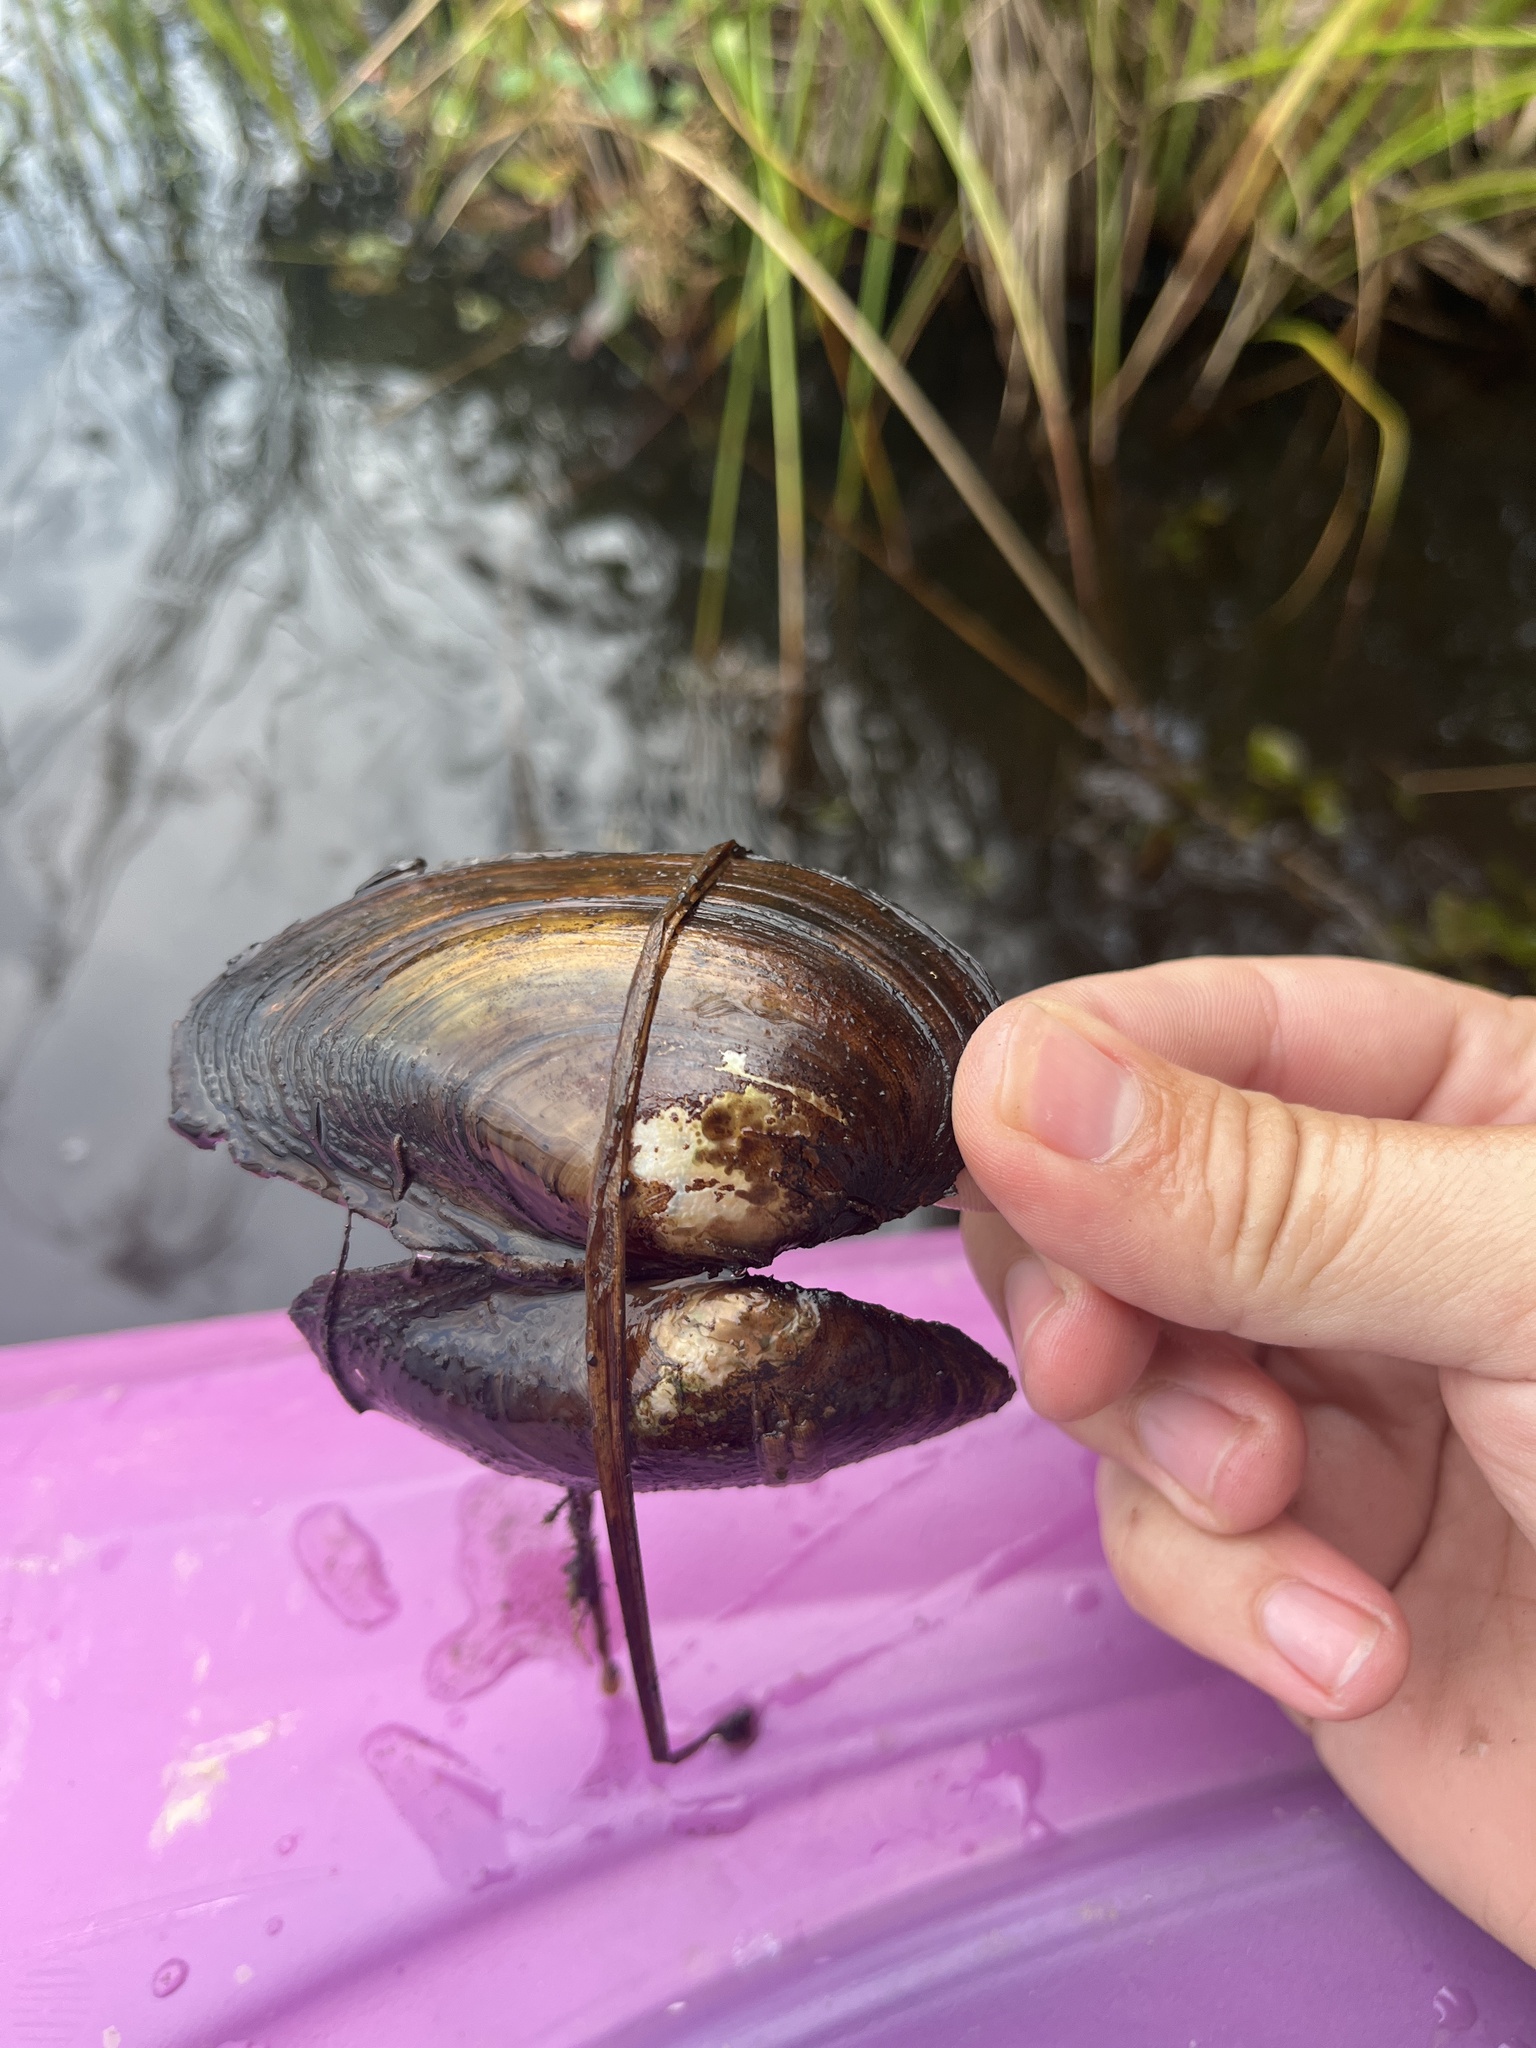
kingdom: Animalia
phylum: Mollusca
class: Bivalvia
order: Unionida
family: Unionidae
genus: Pyganodon
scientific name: Pyganodon cataracta
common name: Eastern floater
